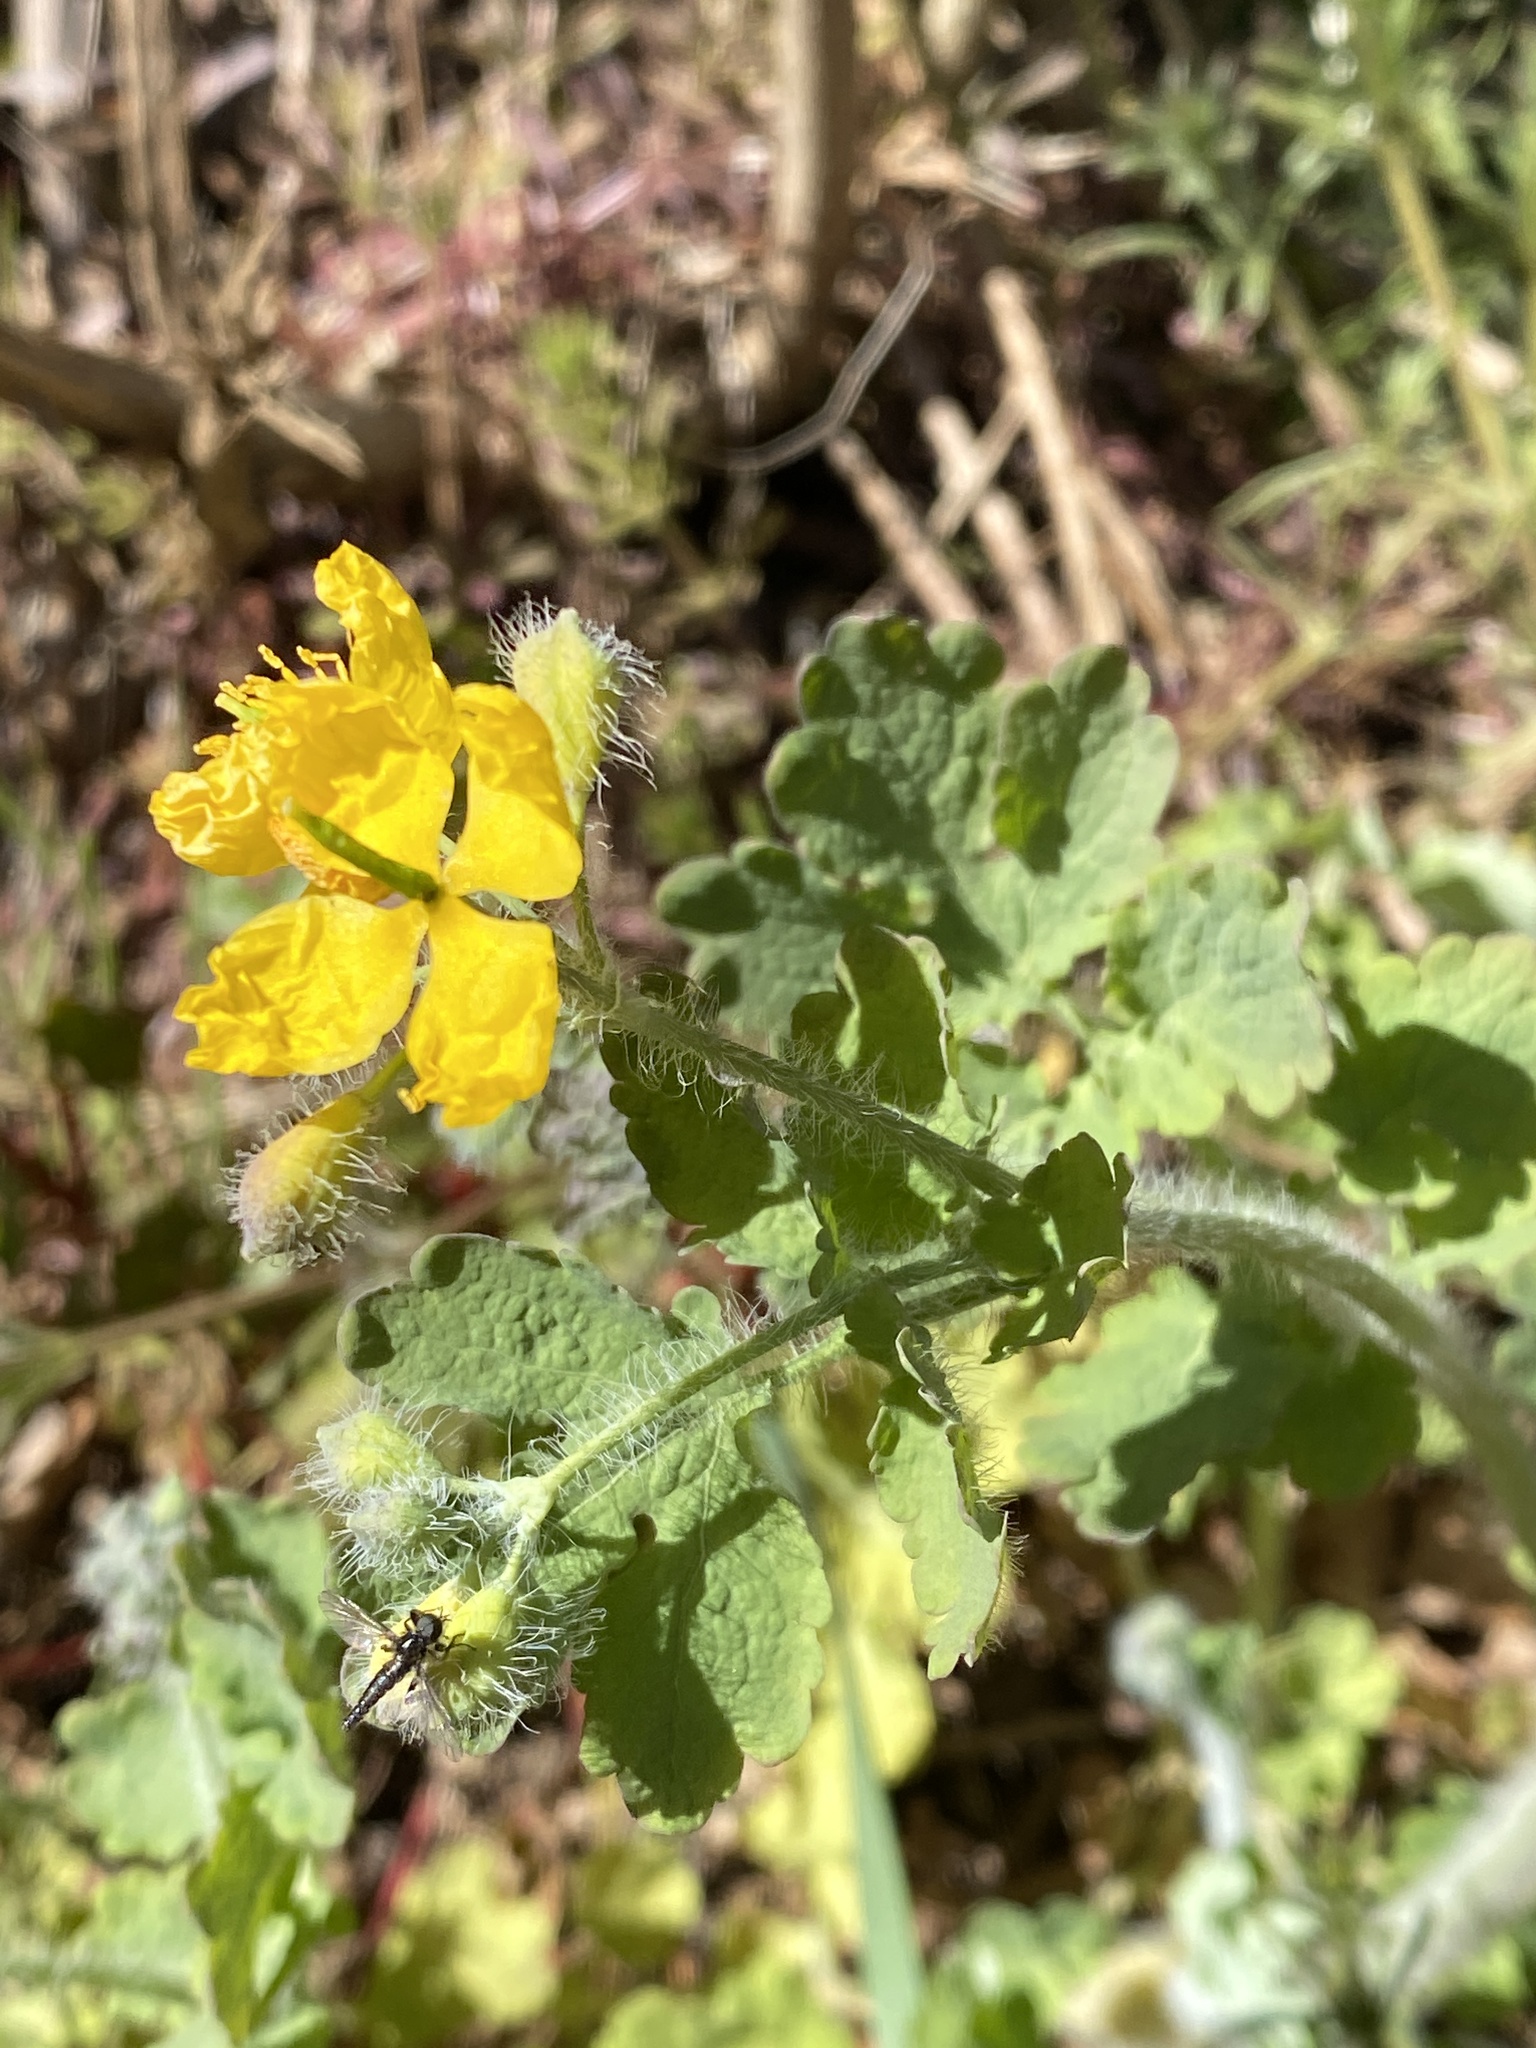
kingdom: Plantae
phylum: Tracheophyta
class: Magnoliopsida
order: Ranunculales
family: Papaveraceae
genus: Chelidonium
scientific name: Chelidonium majus
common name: Greater celandine
